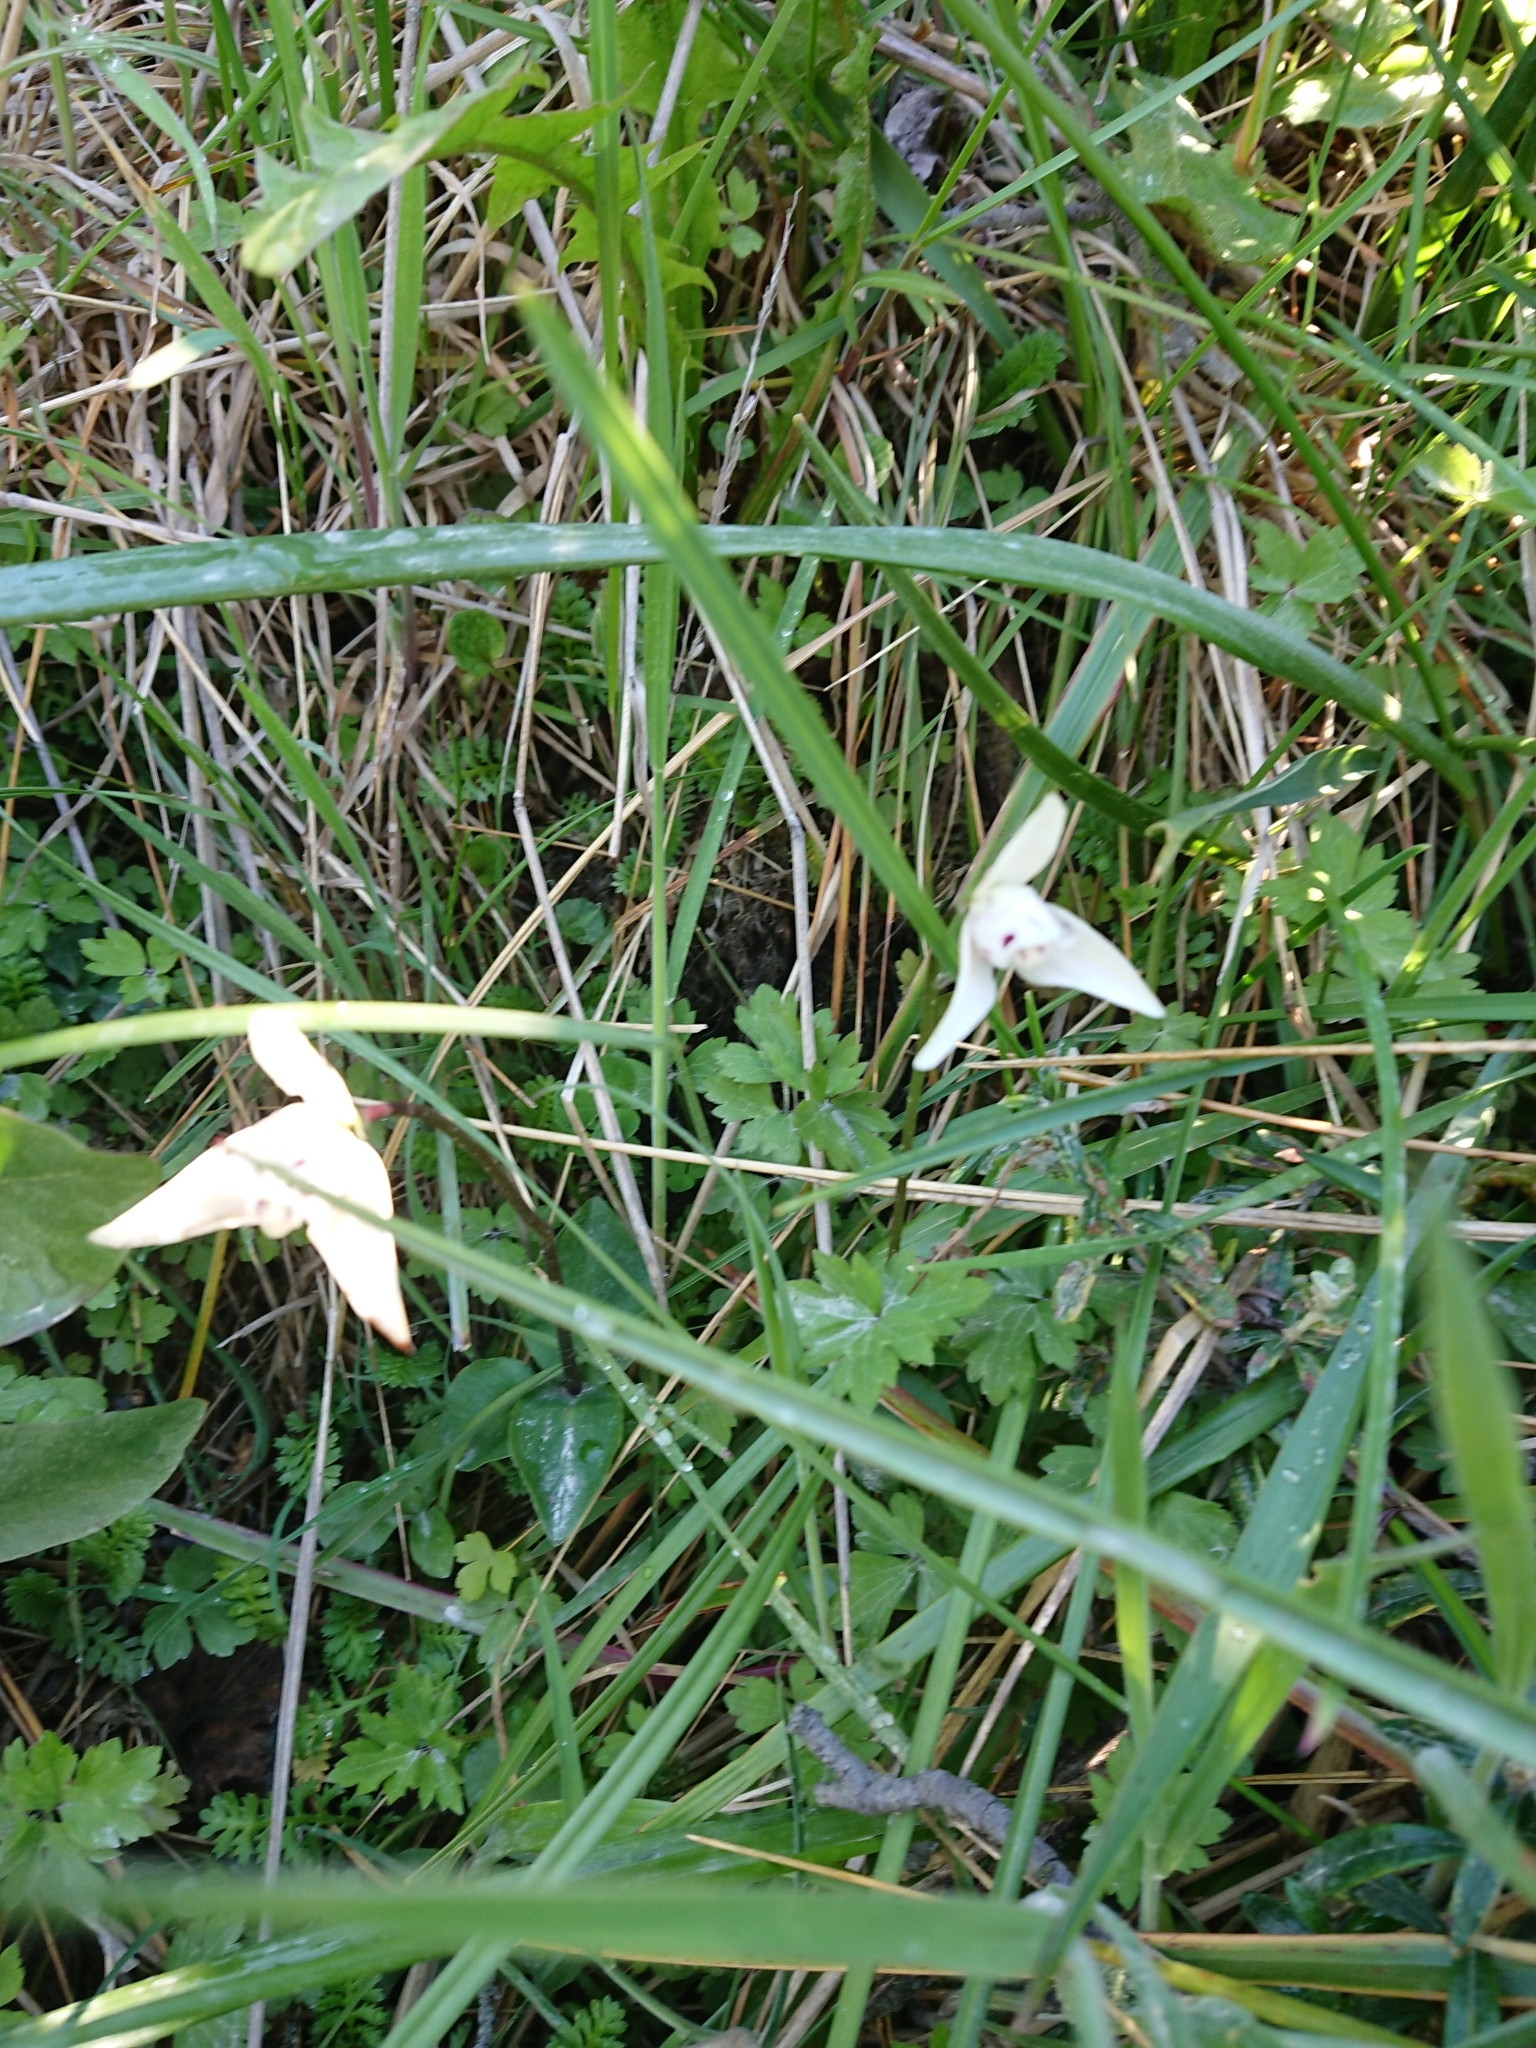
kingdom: Plantae
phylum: Tracheophyta
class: Liliopsida
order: Asparagales
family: Orchidaceae
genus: Codonorchis
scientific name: Codonorchis lessonii
